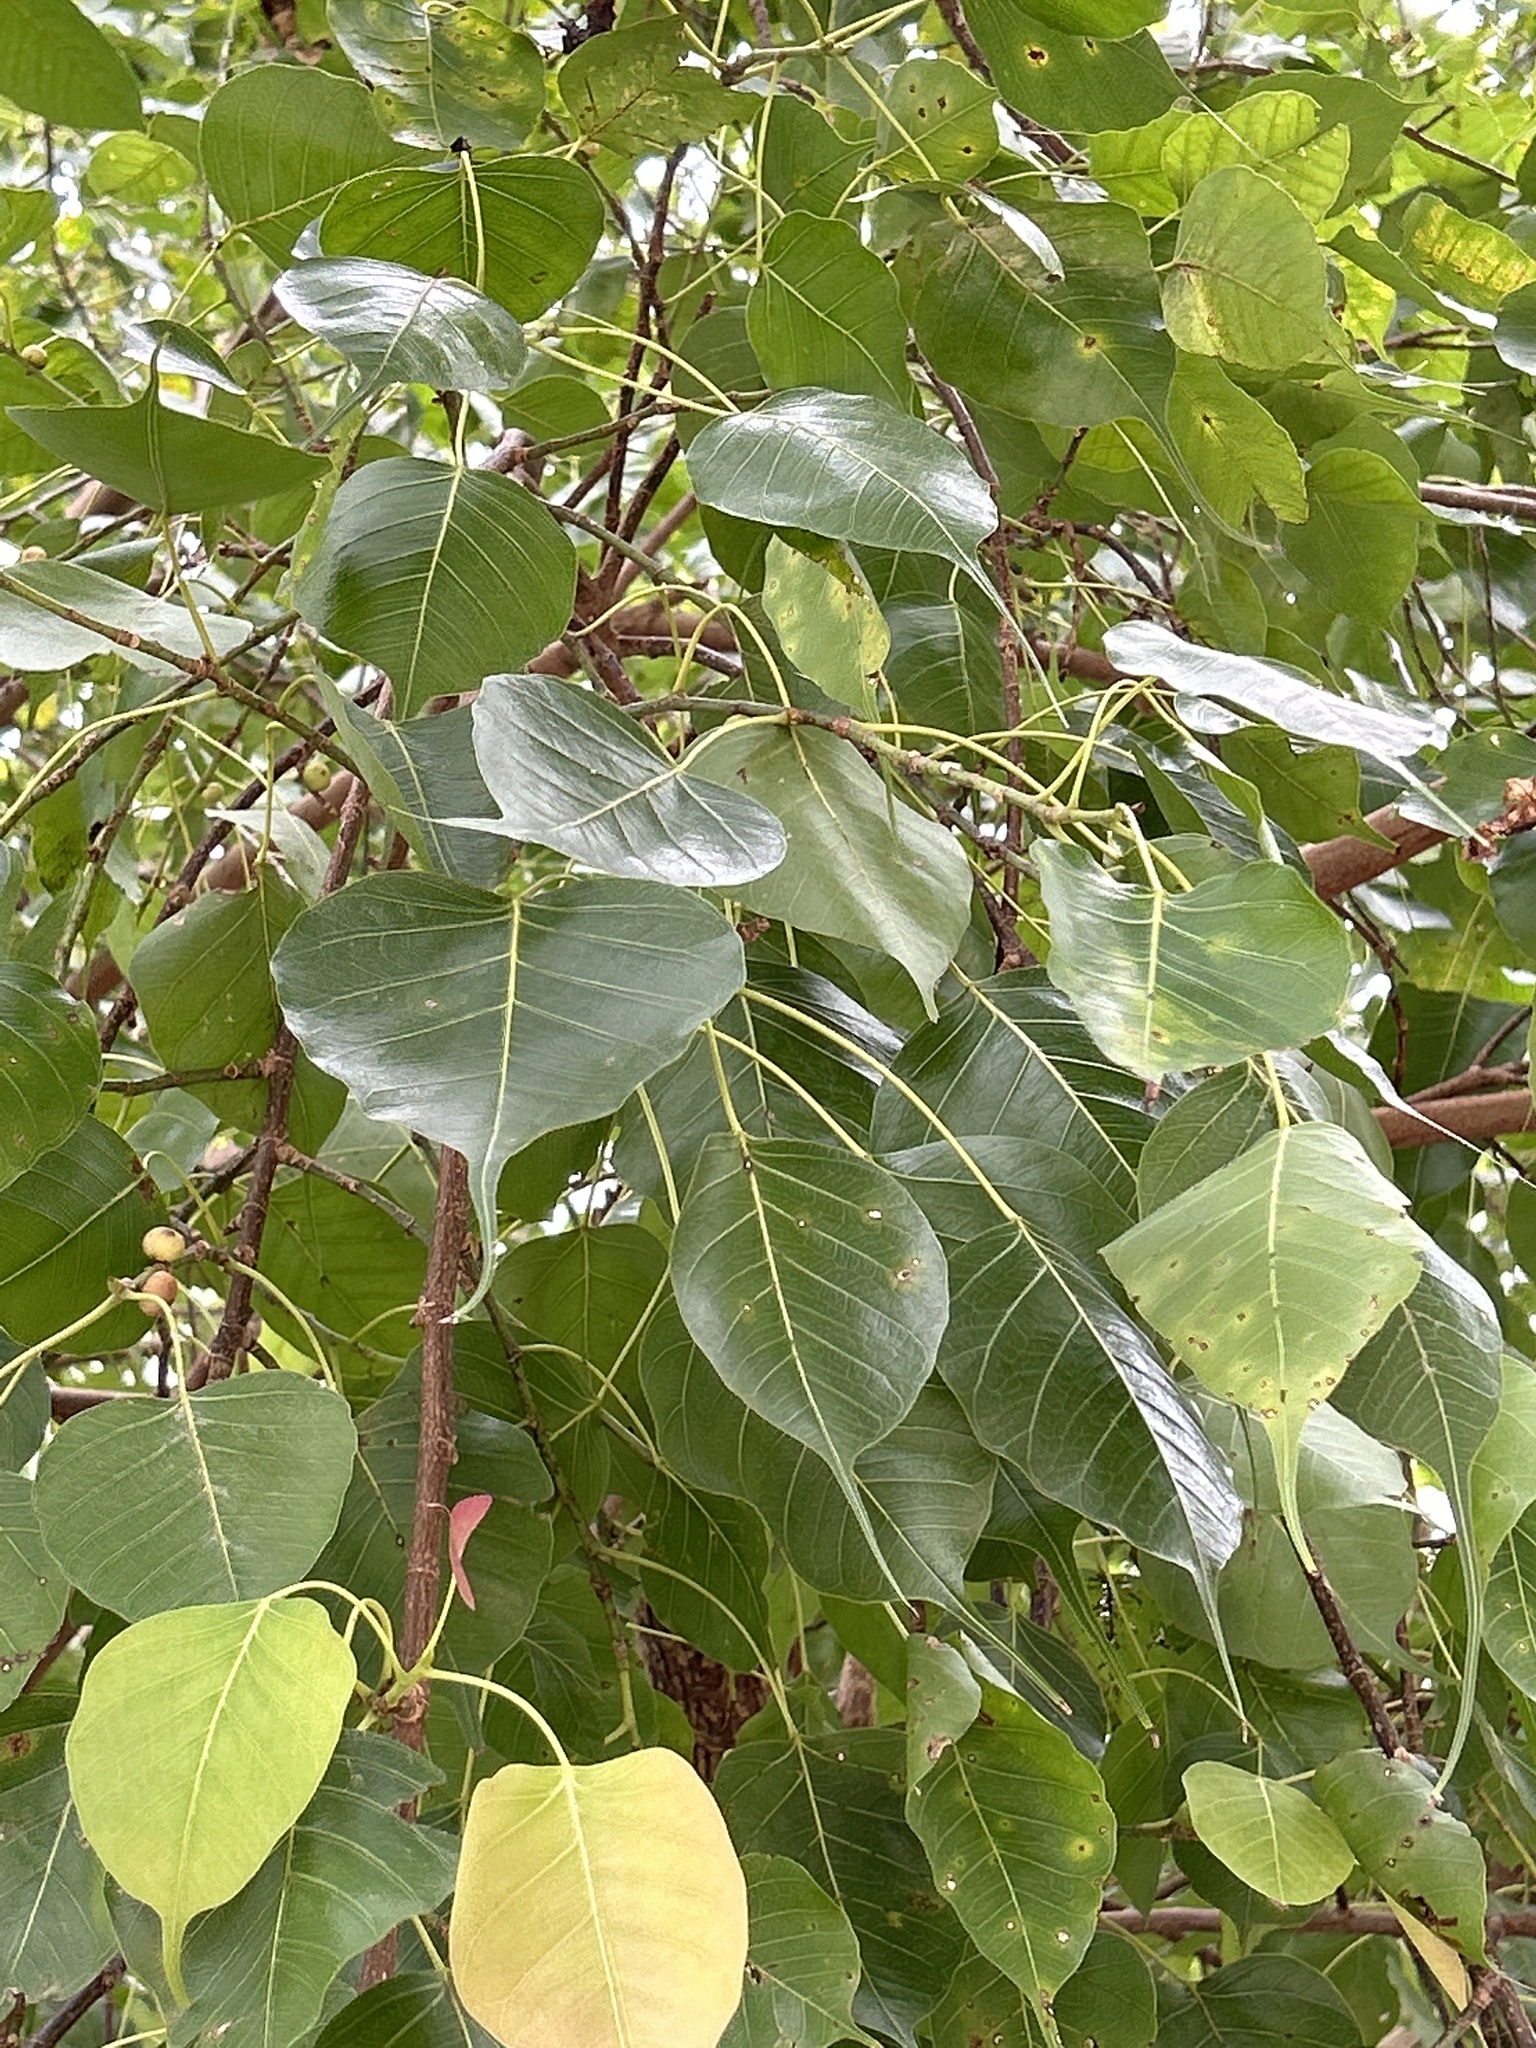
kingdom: Plantae
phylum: Tracheophyta
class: Magnoliopsida
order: Rosales
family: Moraceae
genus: Ficus
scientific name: Ficus religiosa
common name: Bodhi tree
